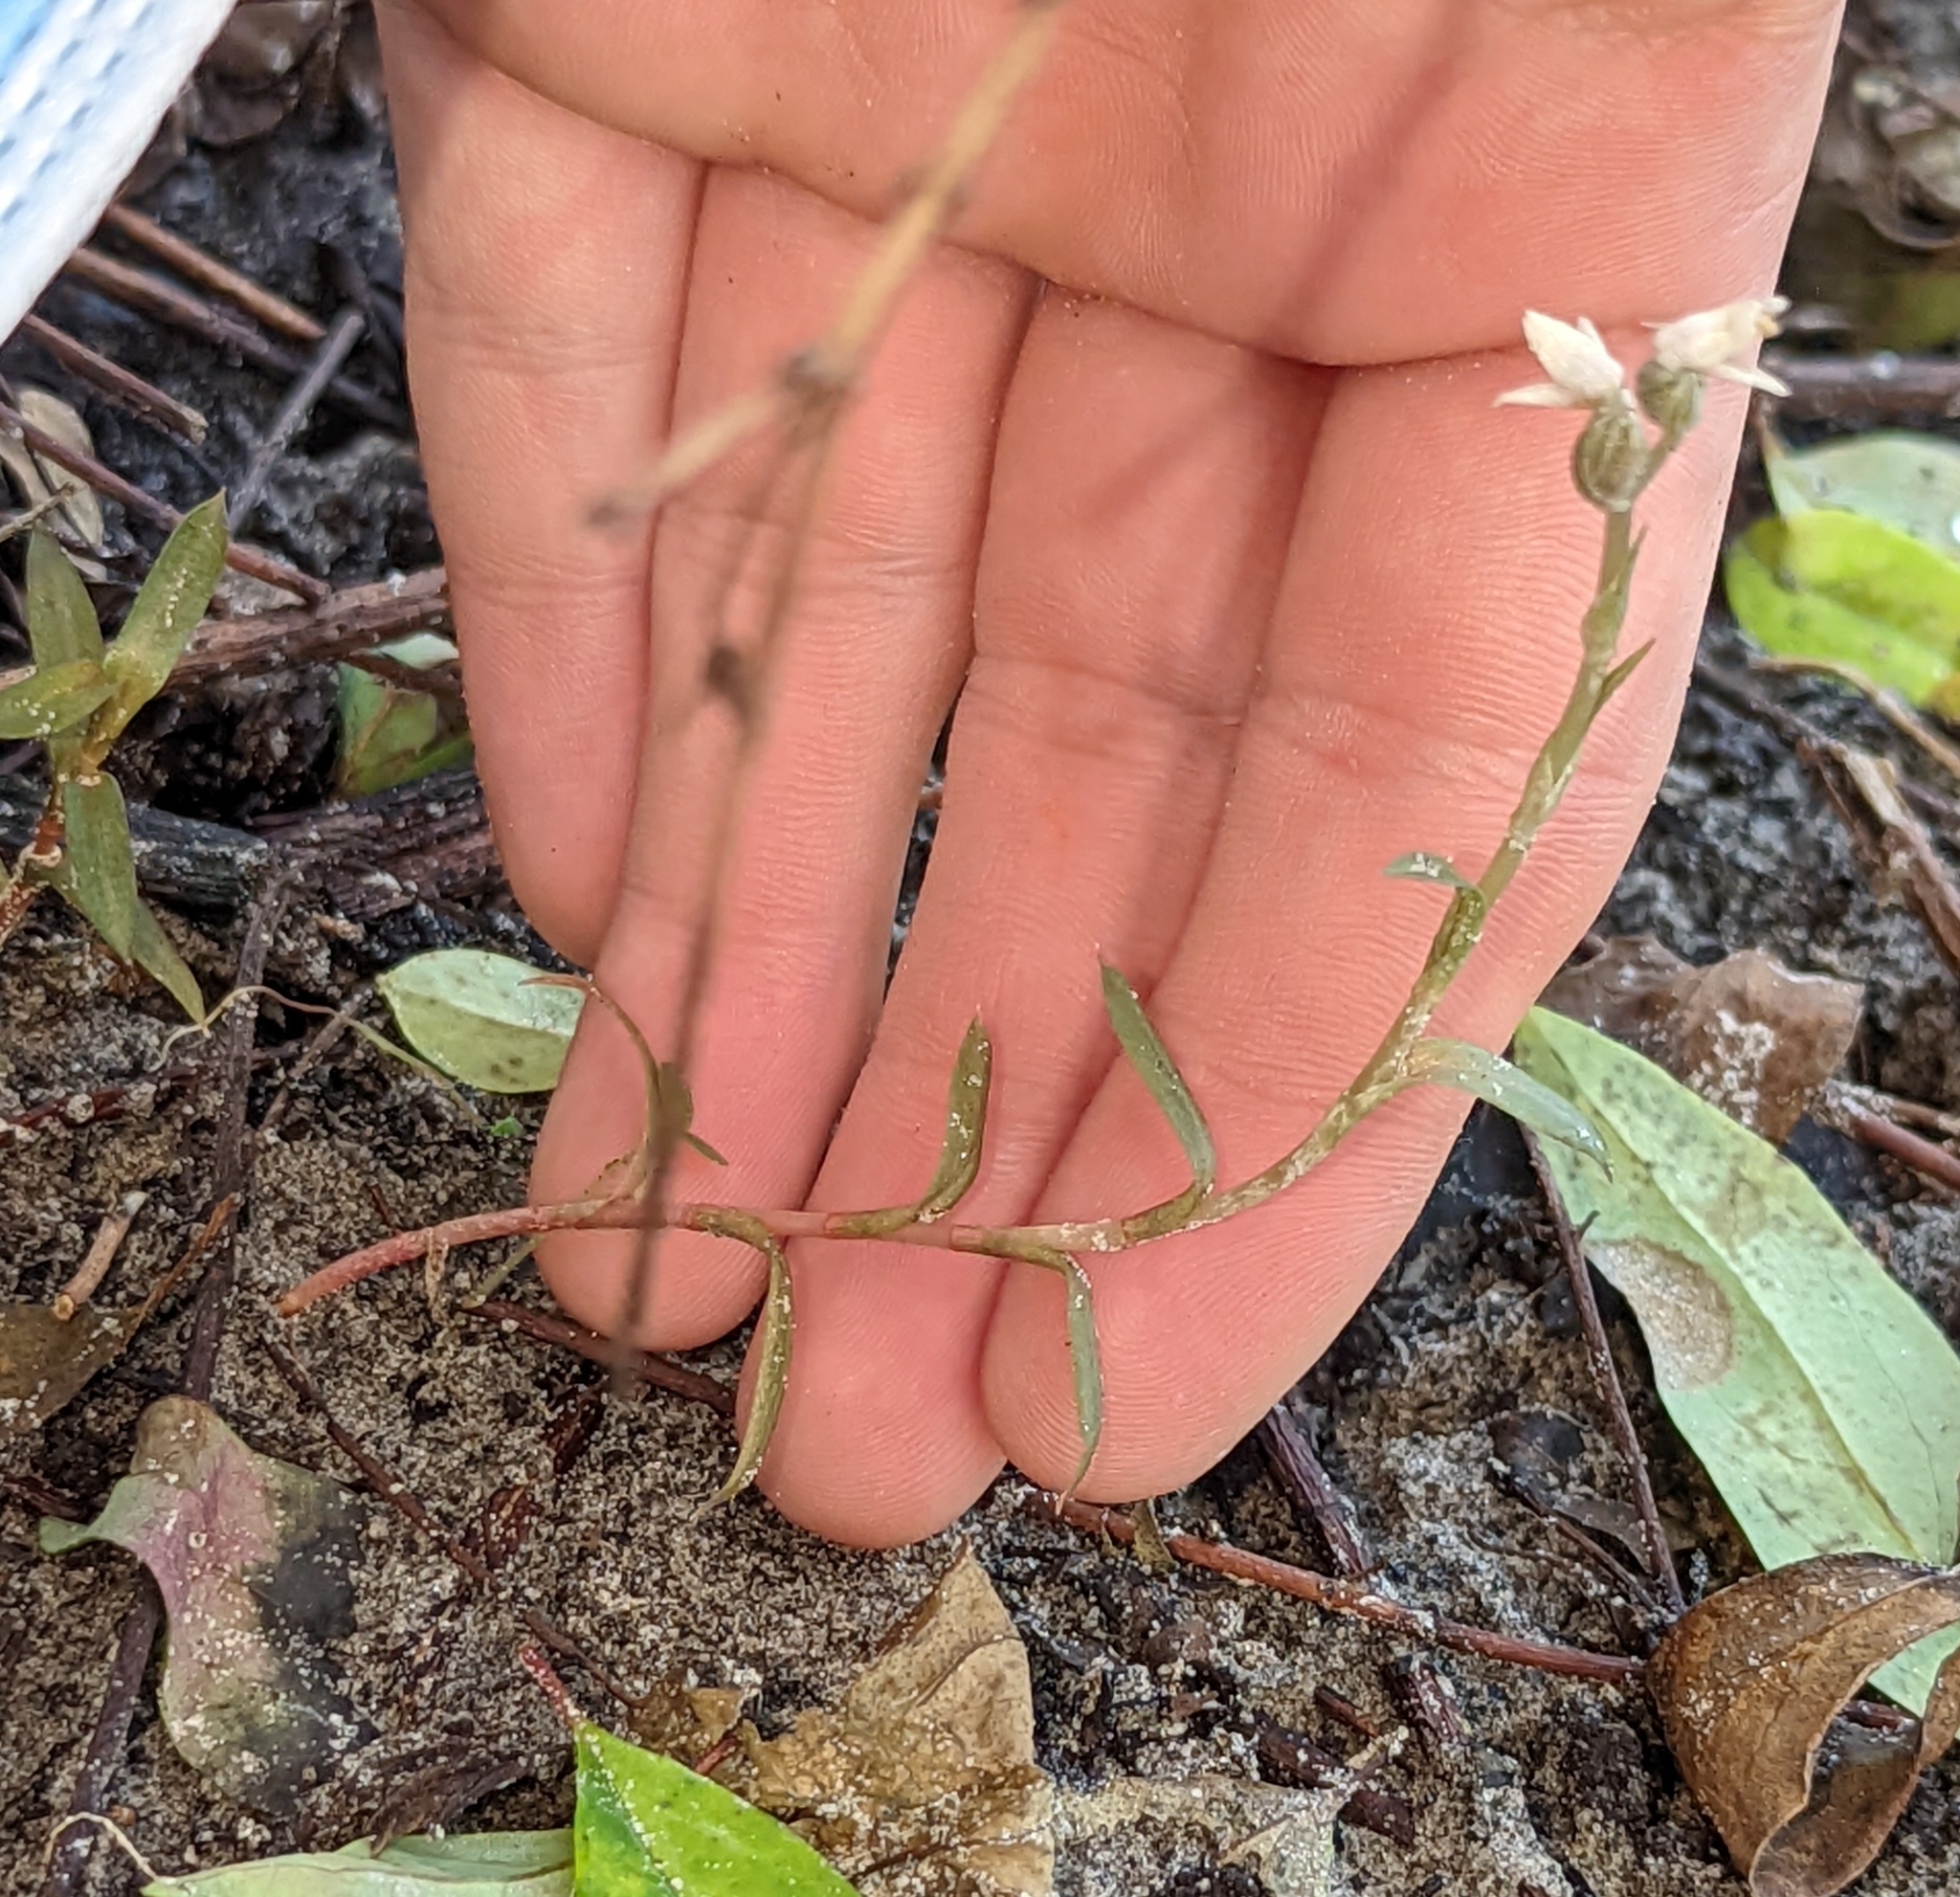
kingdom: Plantae
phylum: Tracheophyta
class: Liliopsida
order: Asparagales
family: Orchidaceae
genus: Zeuxine
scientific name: Zeuxine strateumatica
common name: Soldier's orchid
